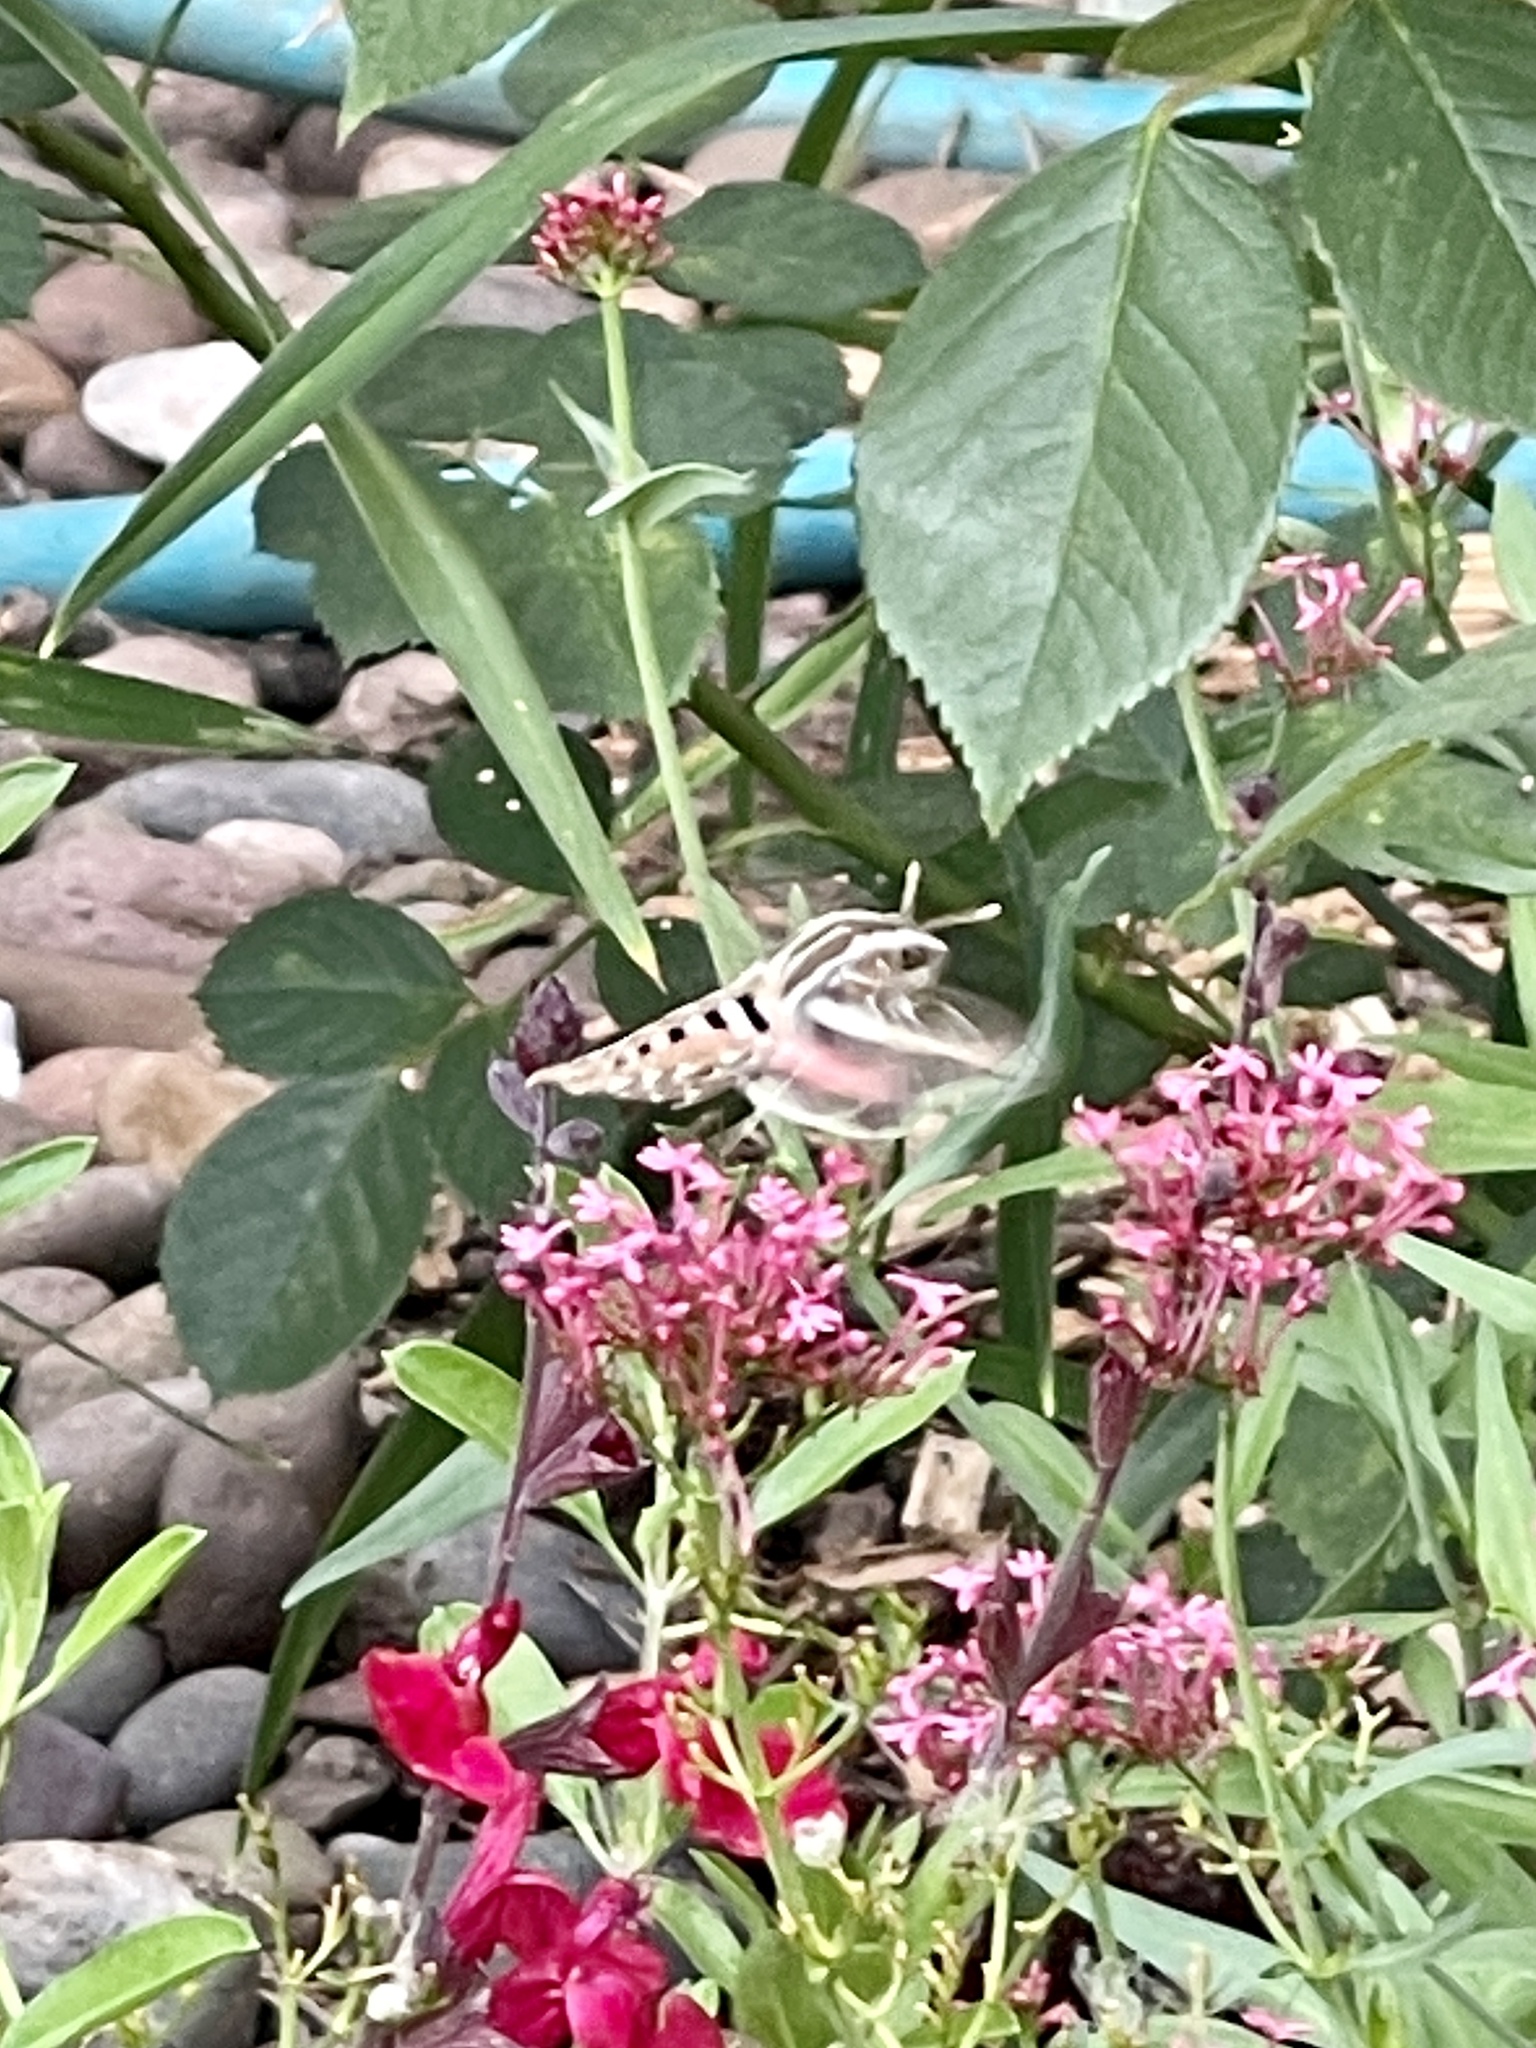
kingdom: Animalia
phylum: Arthropoda
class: Insecta
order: Lepidoptera
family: Sphingidae
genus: Hyles
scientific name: Hyles lineata
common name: White-lined sphinx
